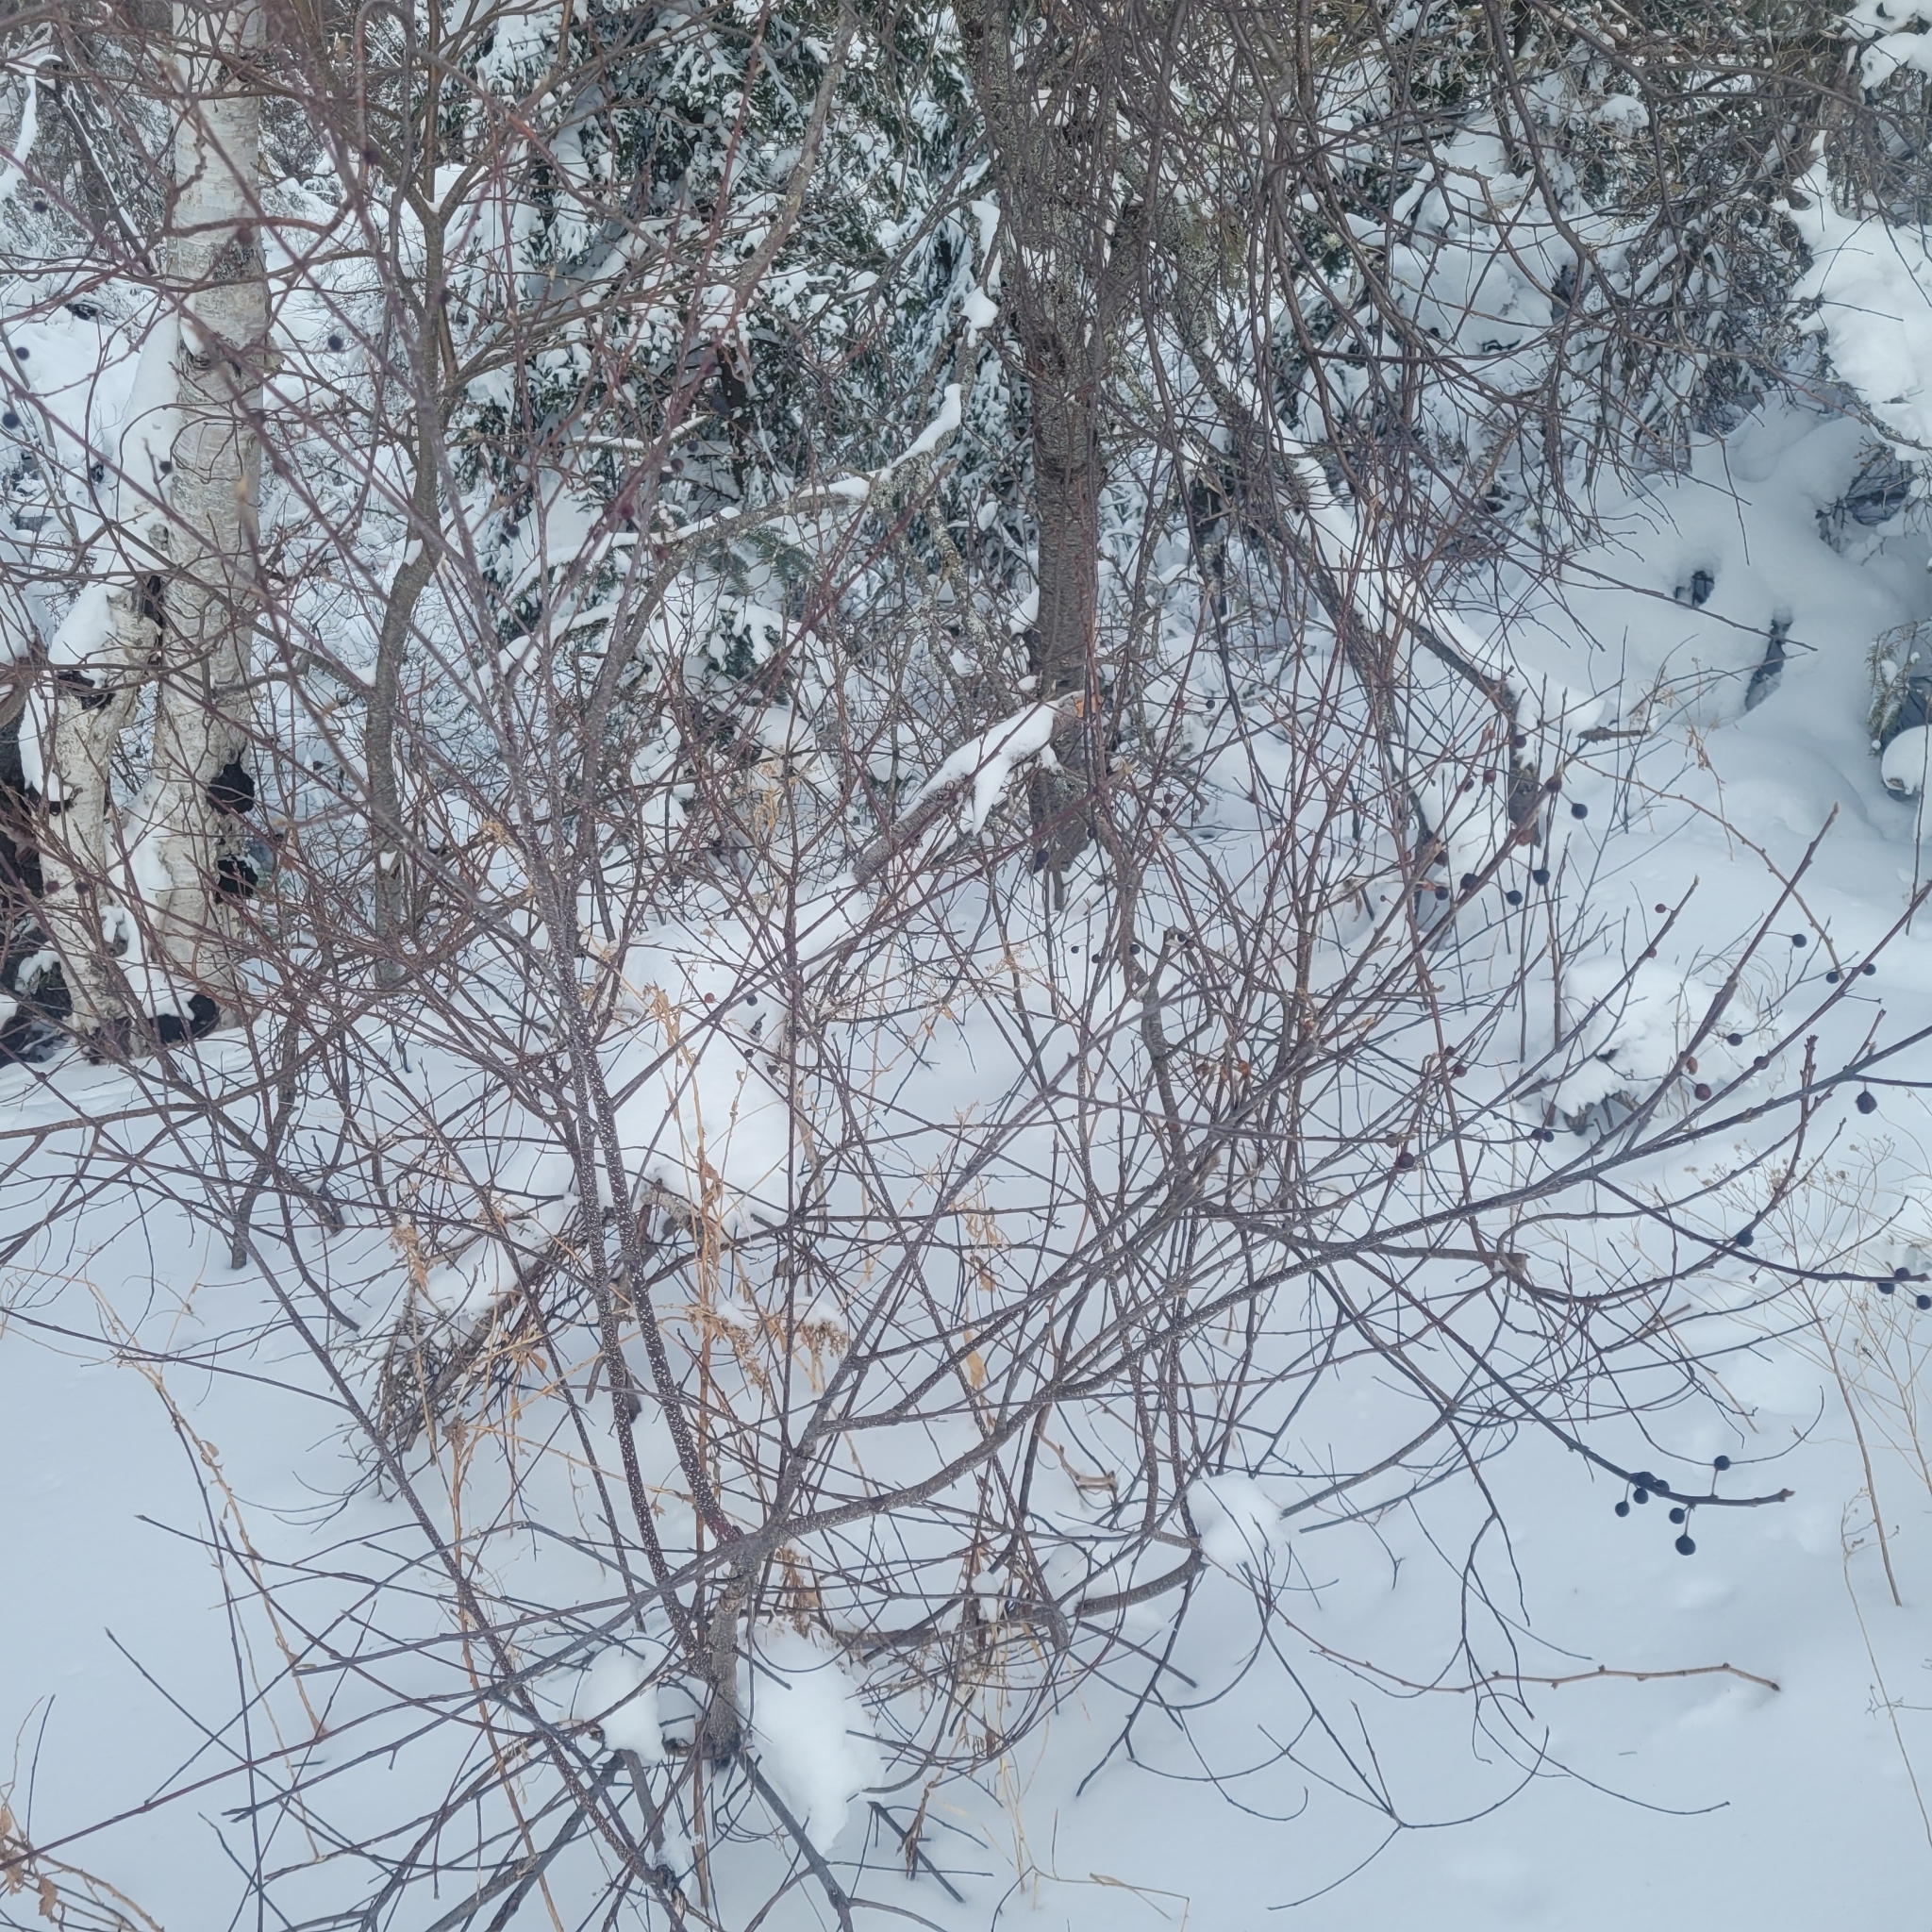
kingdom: Plantae
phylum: Tracheophyta
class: Magnoliopsida
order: Rosales
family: Rhamnaceae
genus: Frangula
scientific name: Frangula alnus
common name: Alder buckthorn
